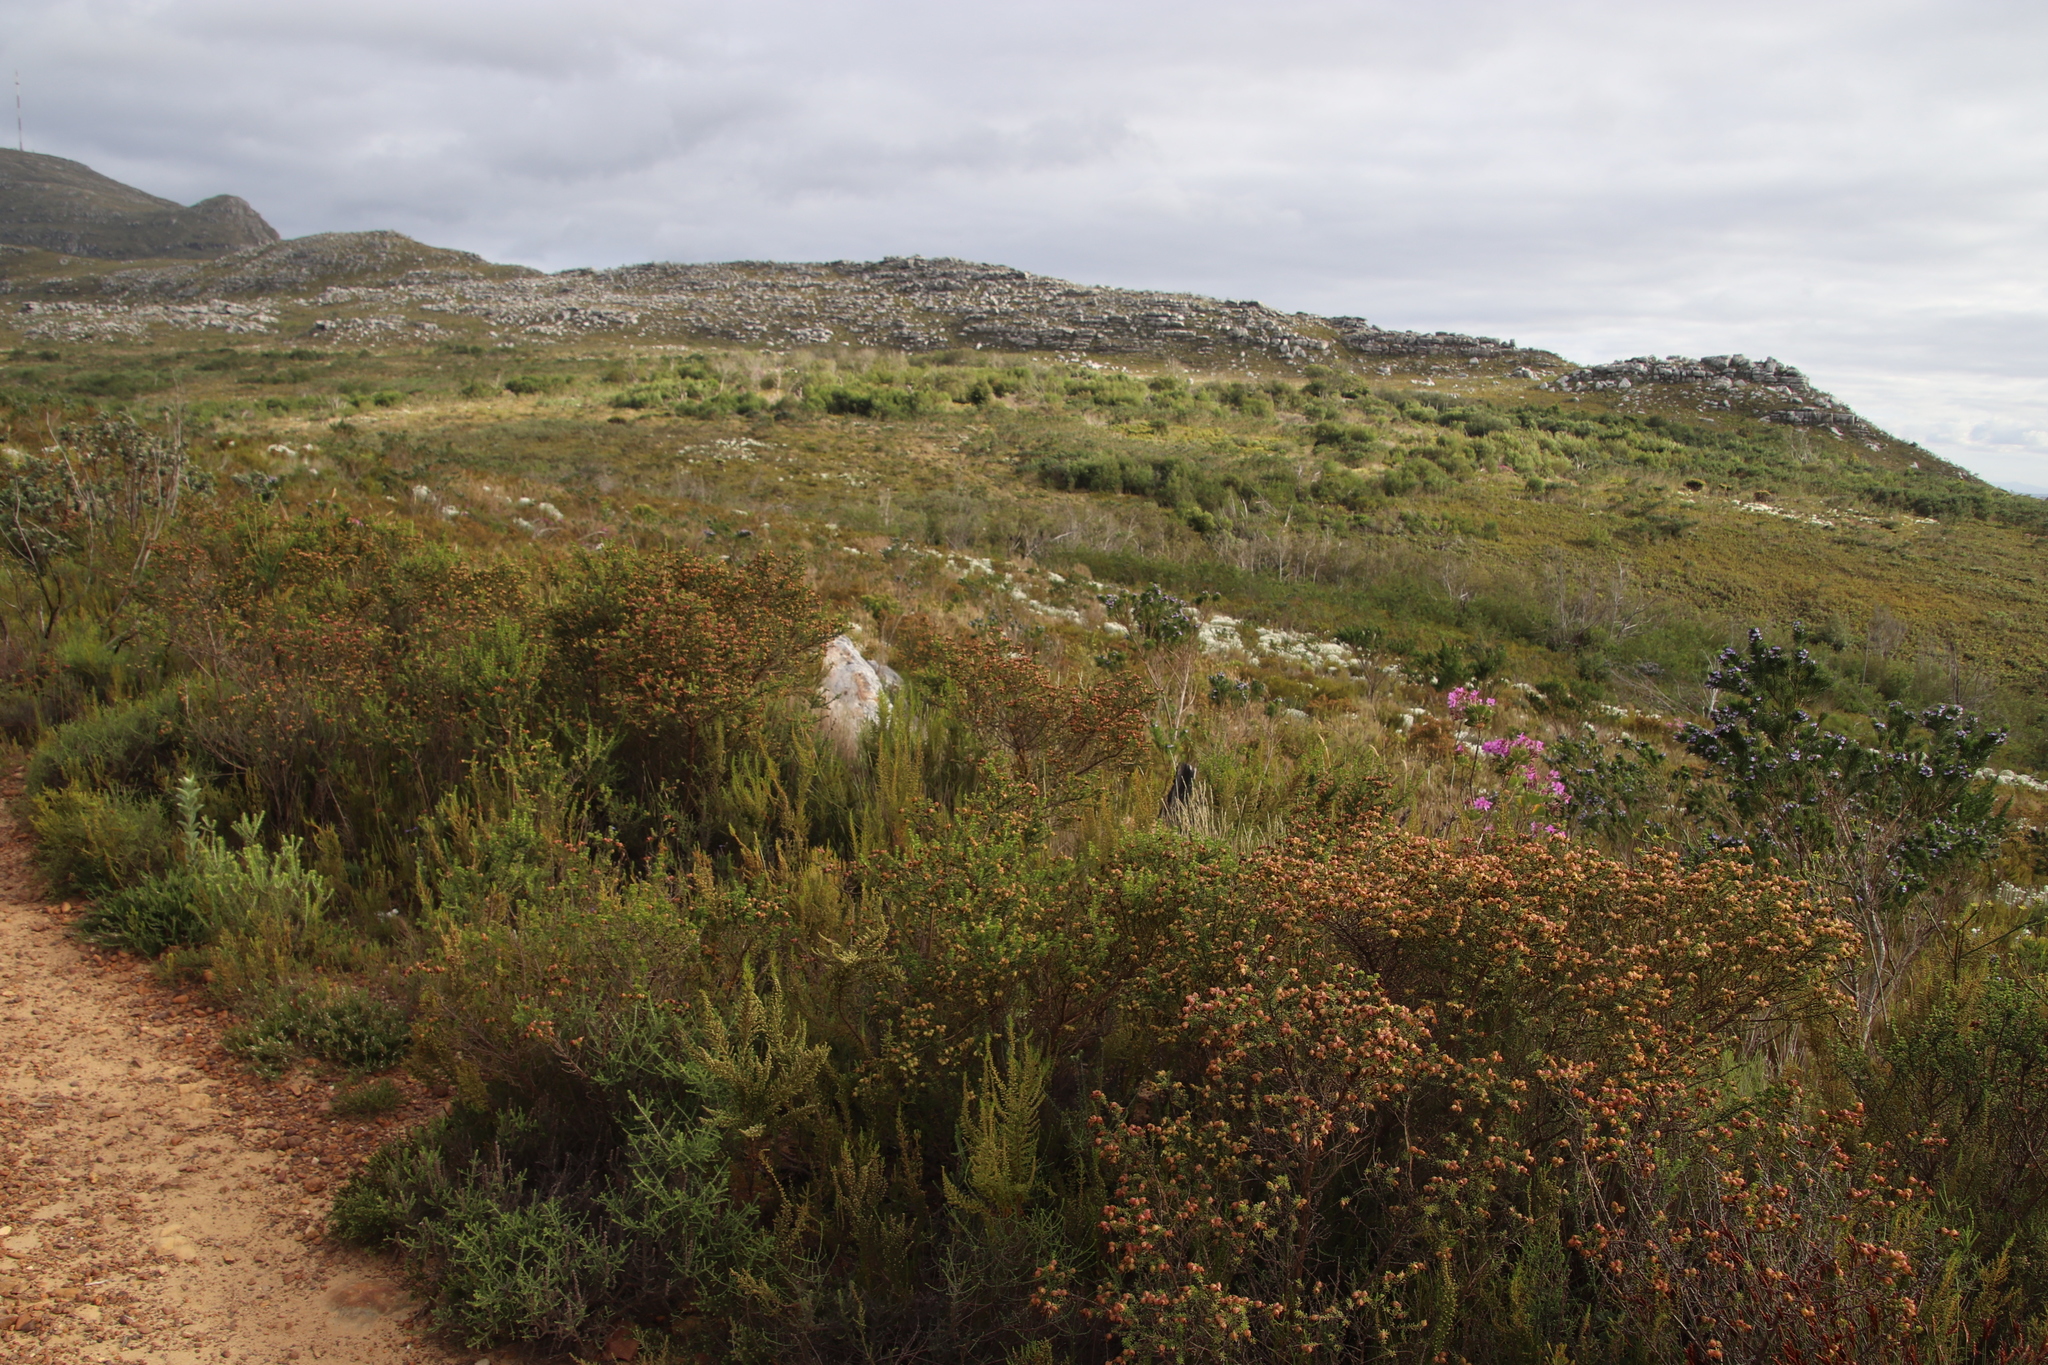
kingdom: Plantae
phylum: Tracheophyta
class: Magnoliopsida
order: Fabales
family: Fabaceae
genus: Aspalathus
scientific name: Aspalathus carnosa
